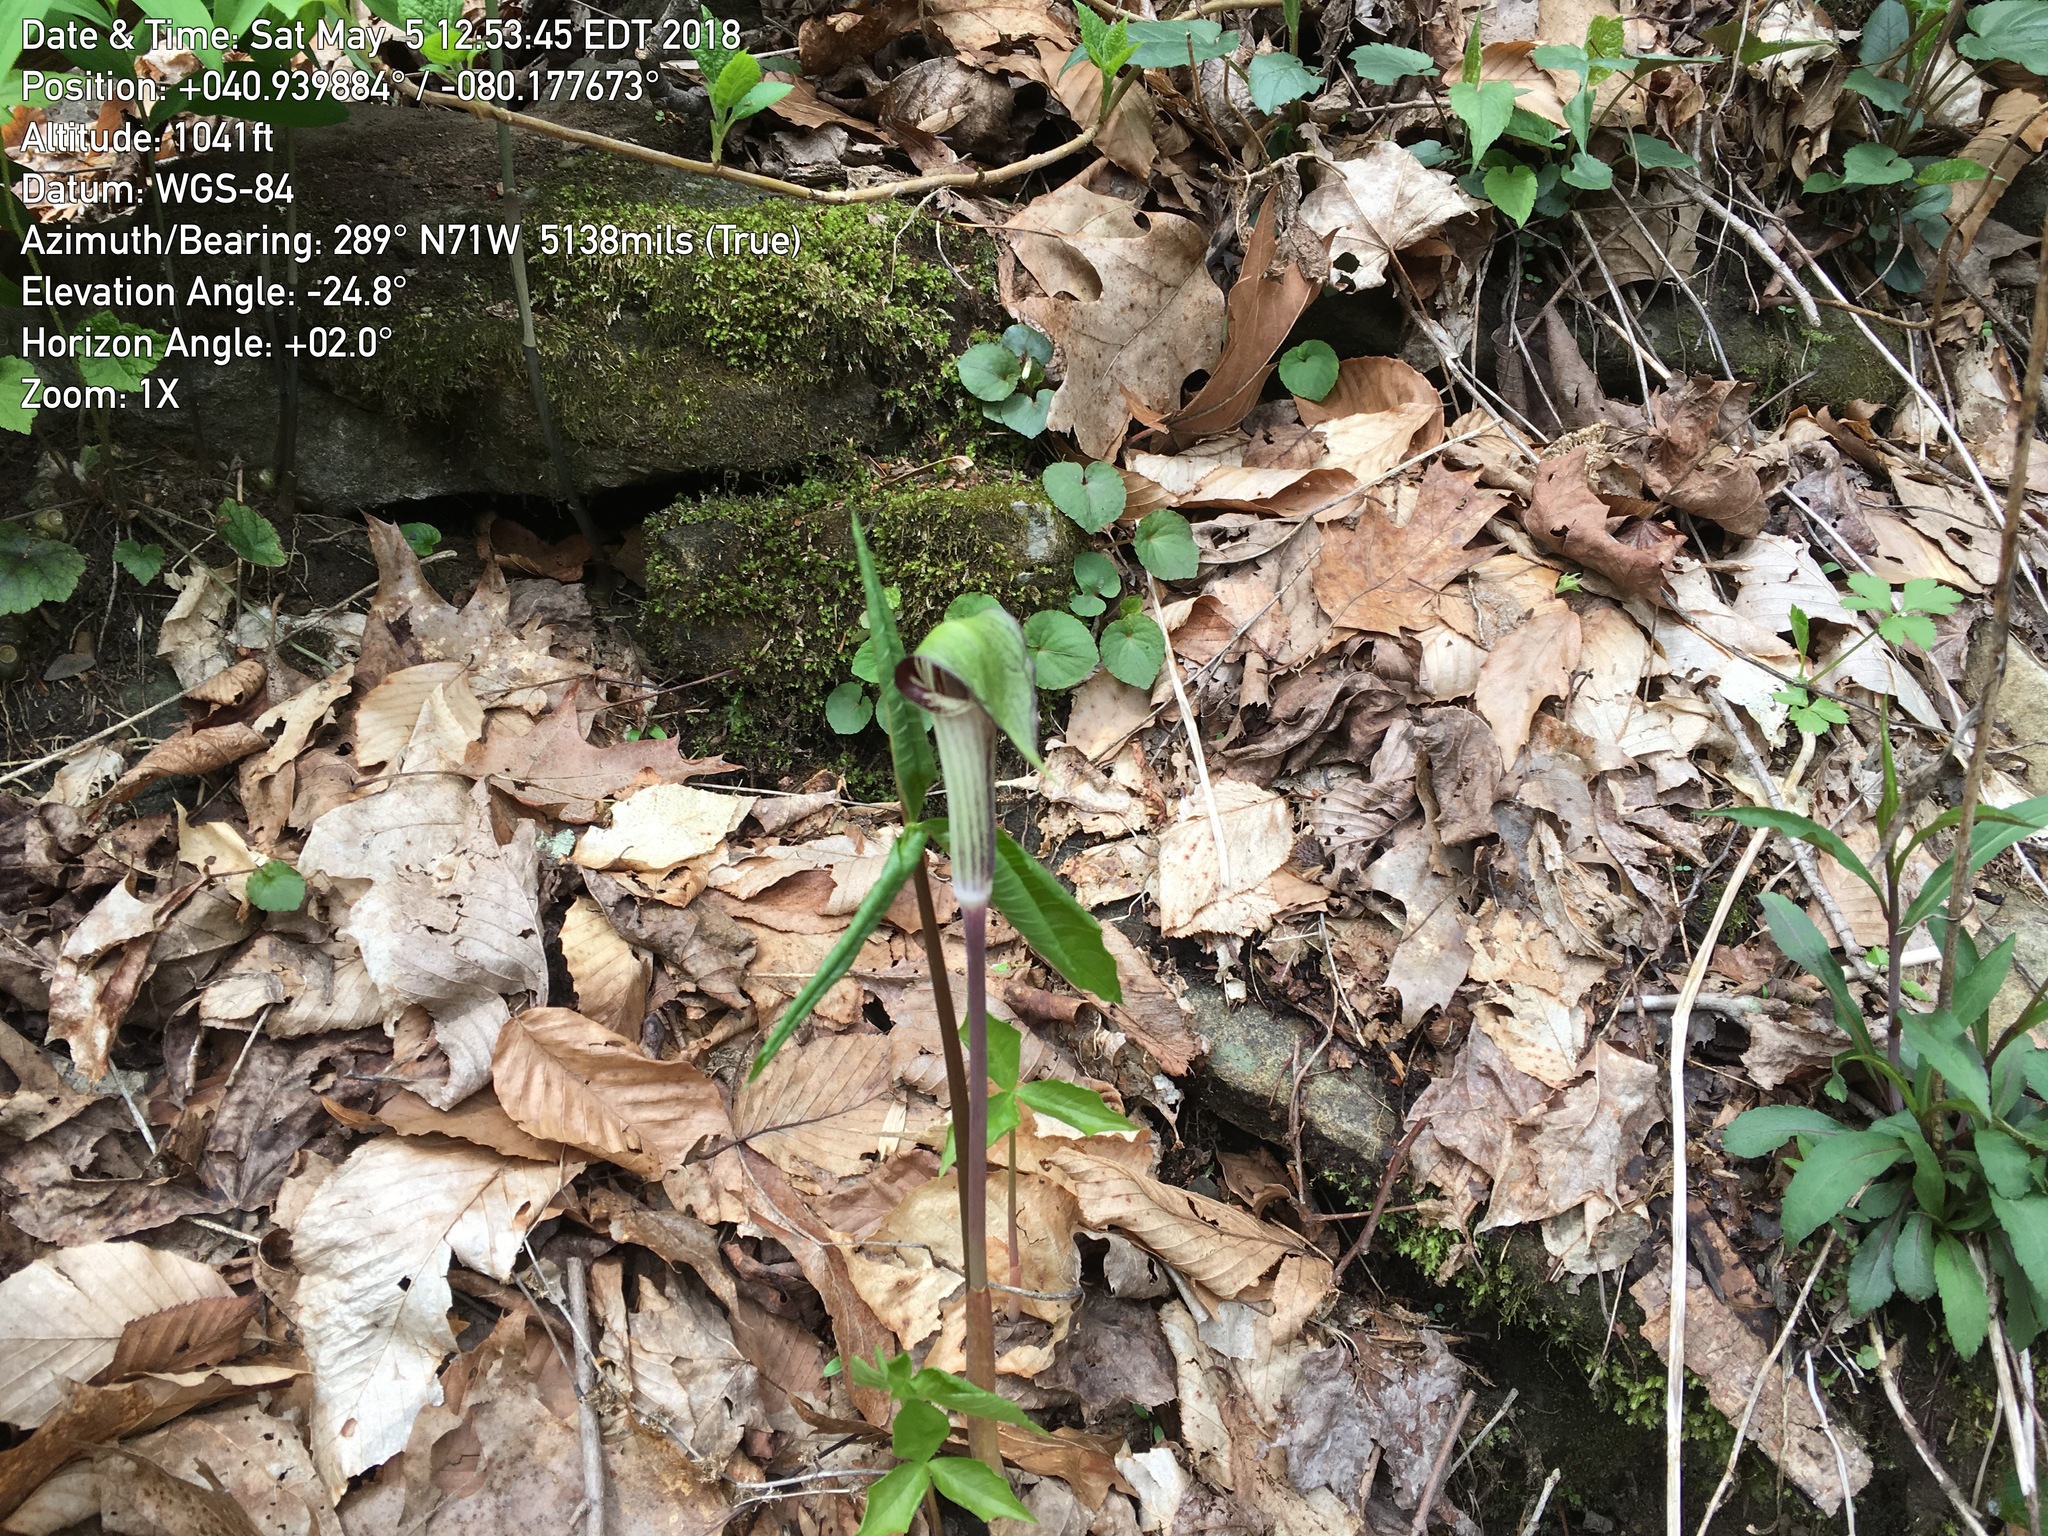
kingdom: Plantae
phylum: Tracheophyta
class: Liliopsida
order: Alismatales
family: Araceae
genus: Arisaema
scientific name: Arisaema triphyllum
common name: Jack-in-the-pulpit
